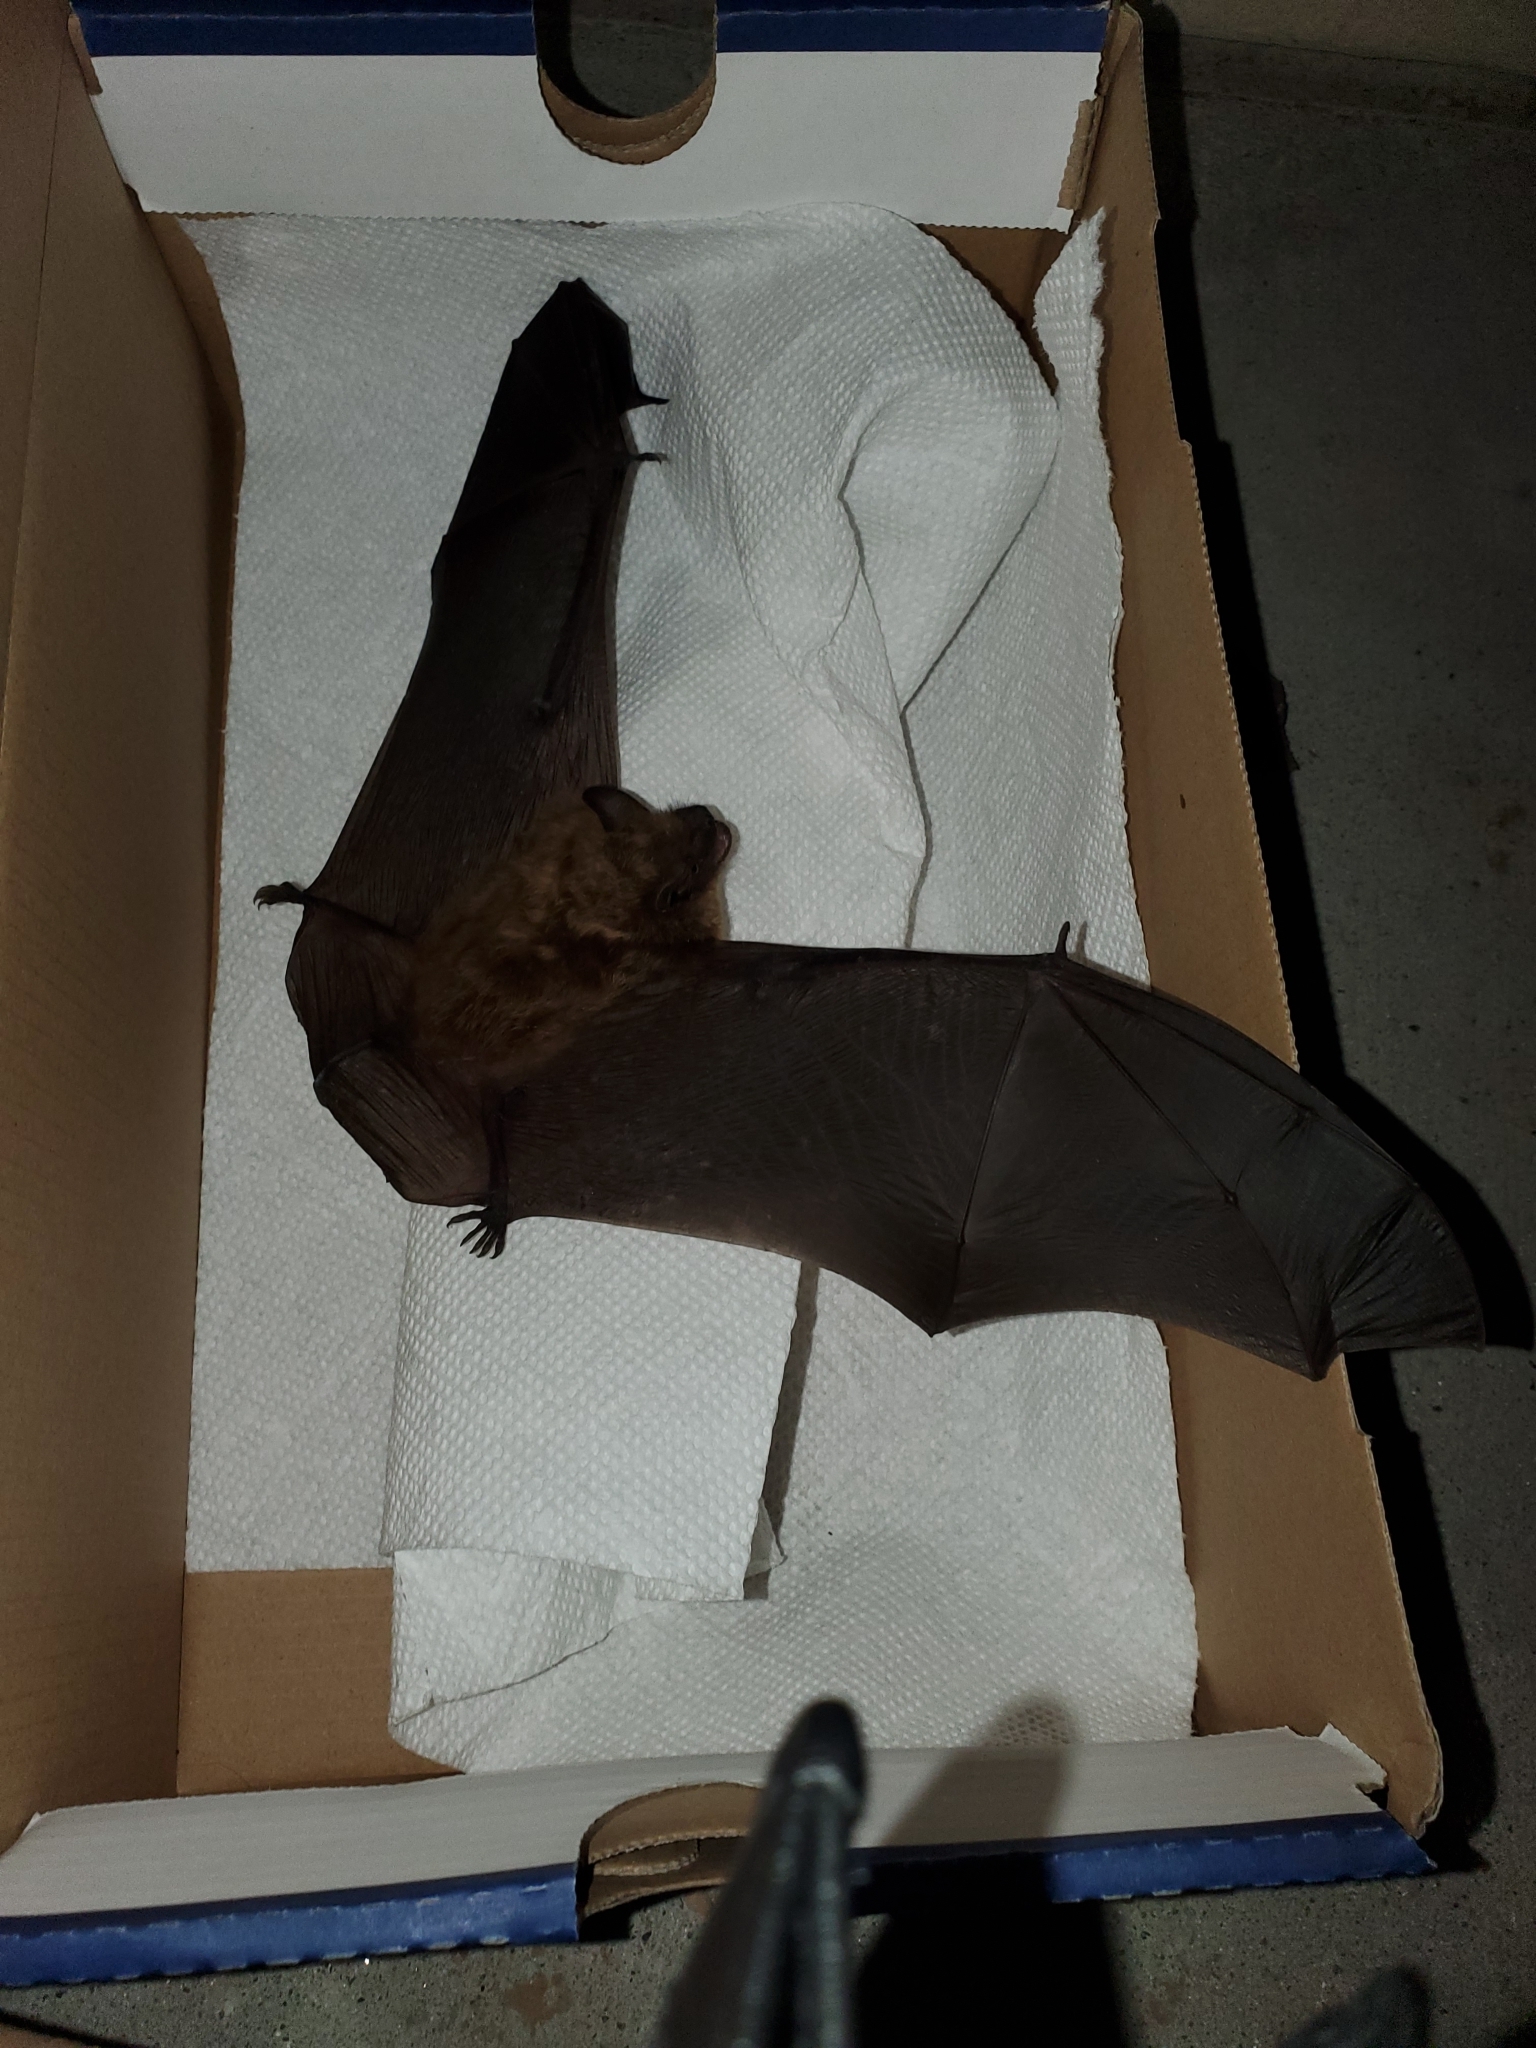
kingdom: Animalia
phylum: Chordata
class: Mammalia
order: Chiroptera
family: Vespertilionidae
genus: Eptesicus
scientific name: Eptesicus fuscus
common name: Big brown bat
